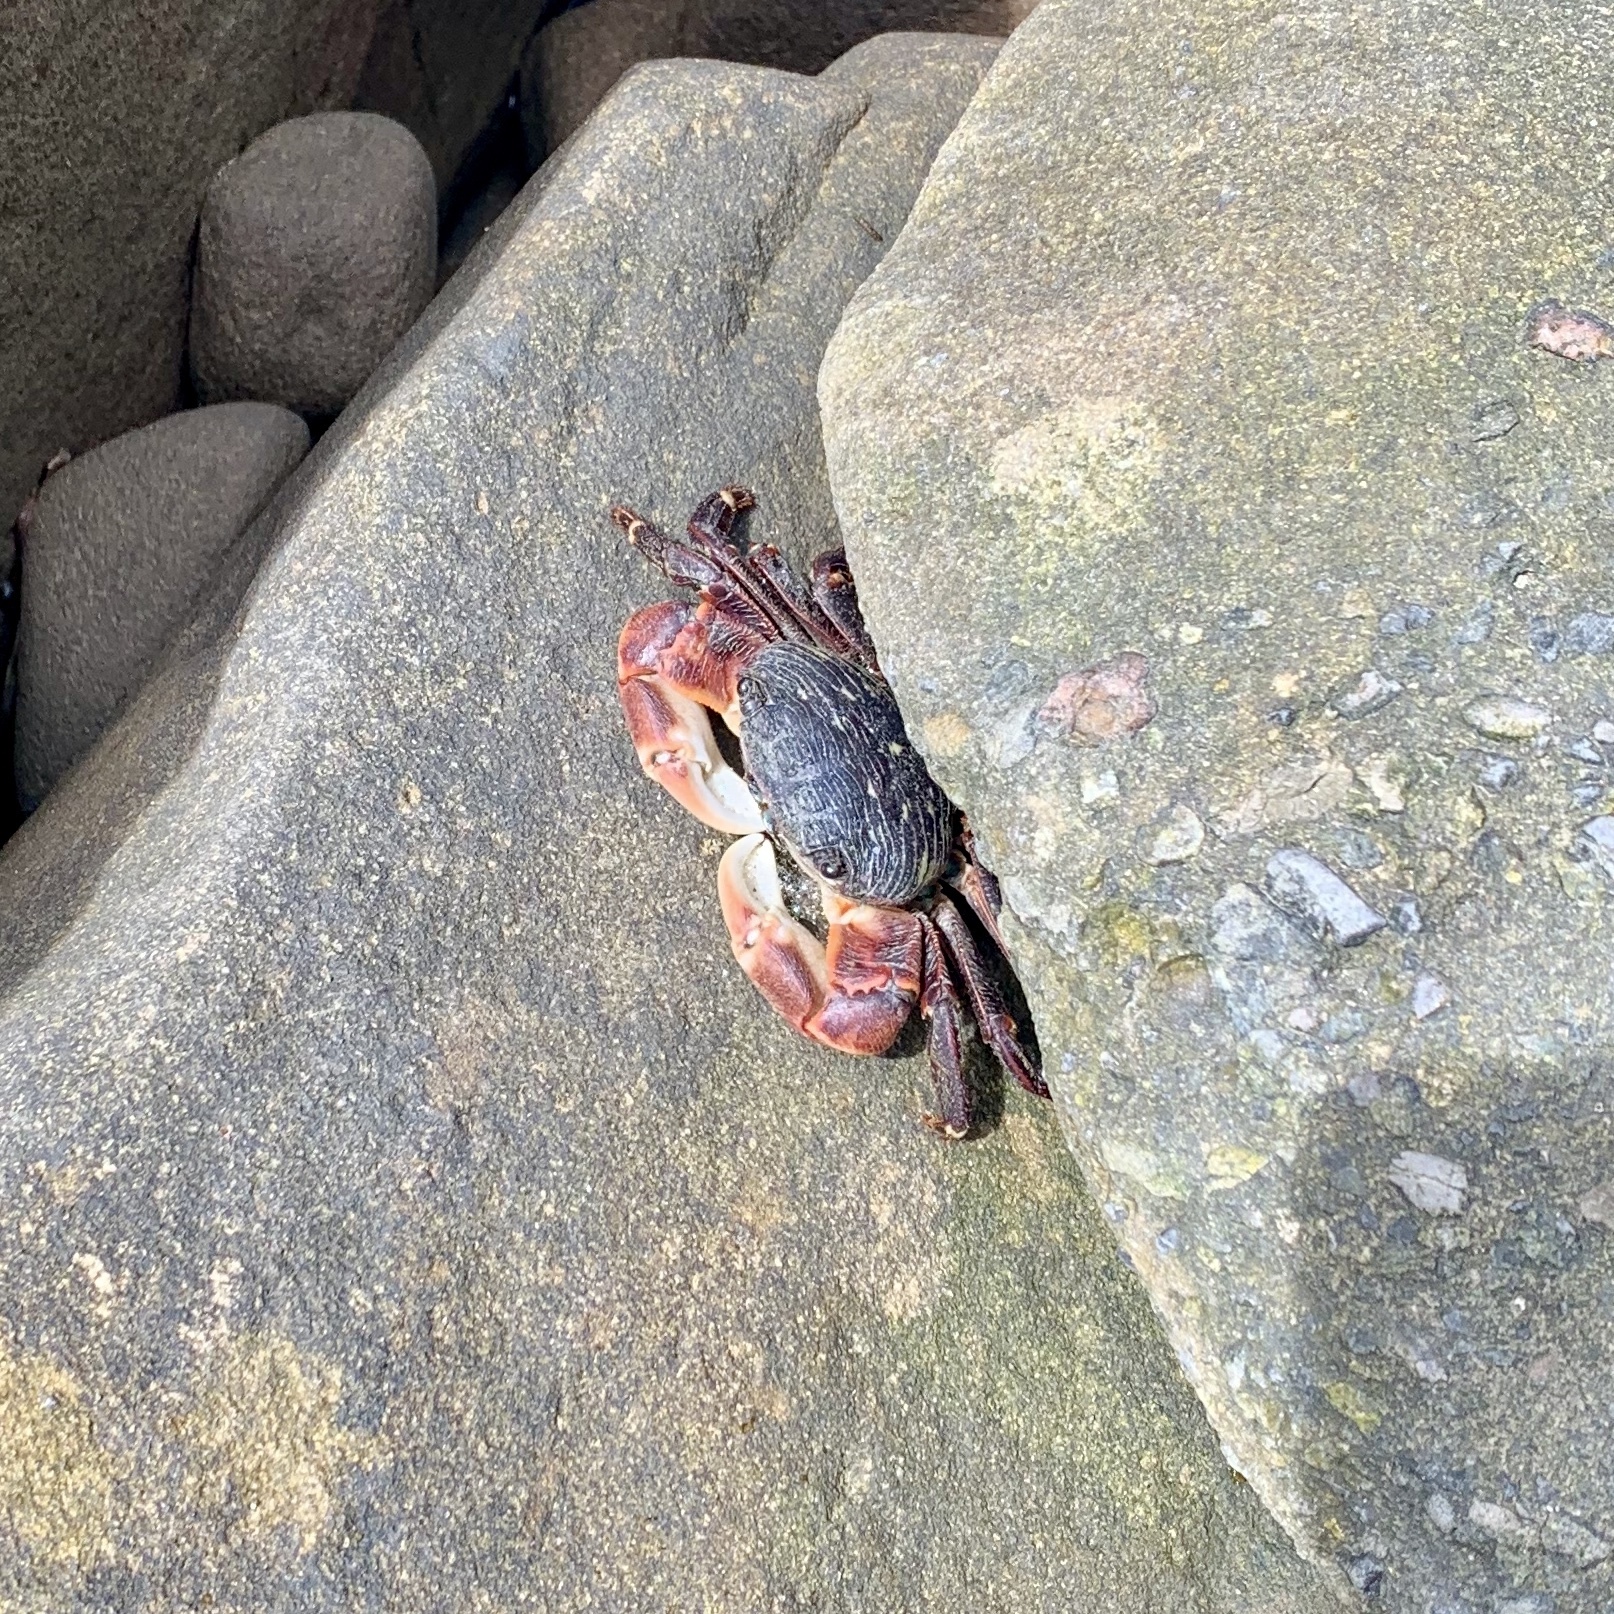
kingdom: Animalia
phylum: Arthropoda
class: Malacostraca
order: Decapoda
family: Grapsidae
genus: Pachygrapsus
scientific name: Pachygrapsus crassipes
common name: Striped shore crab
